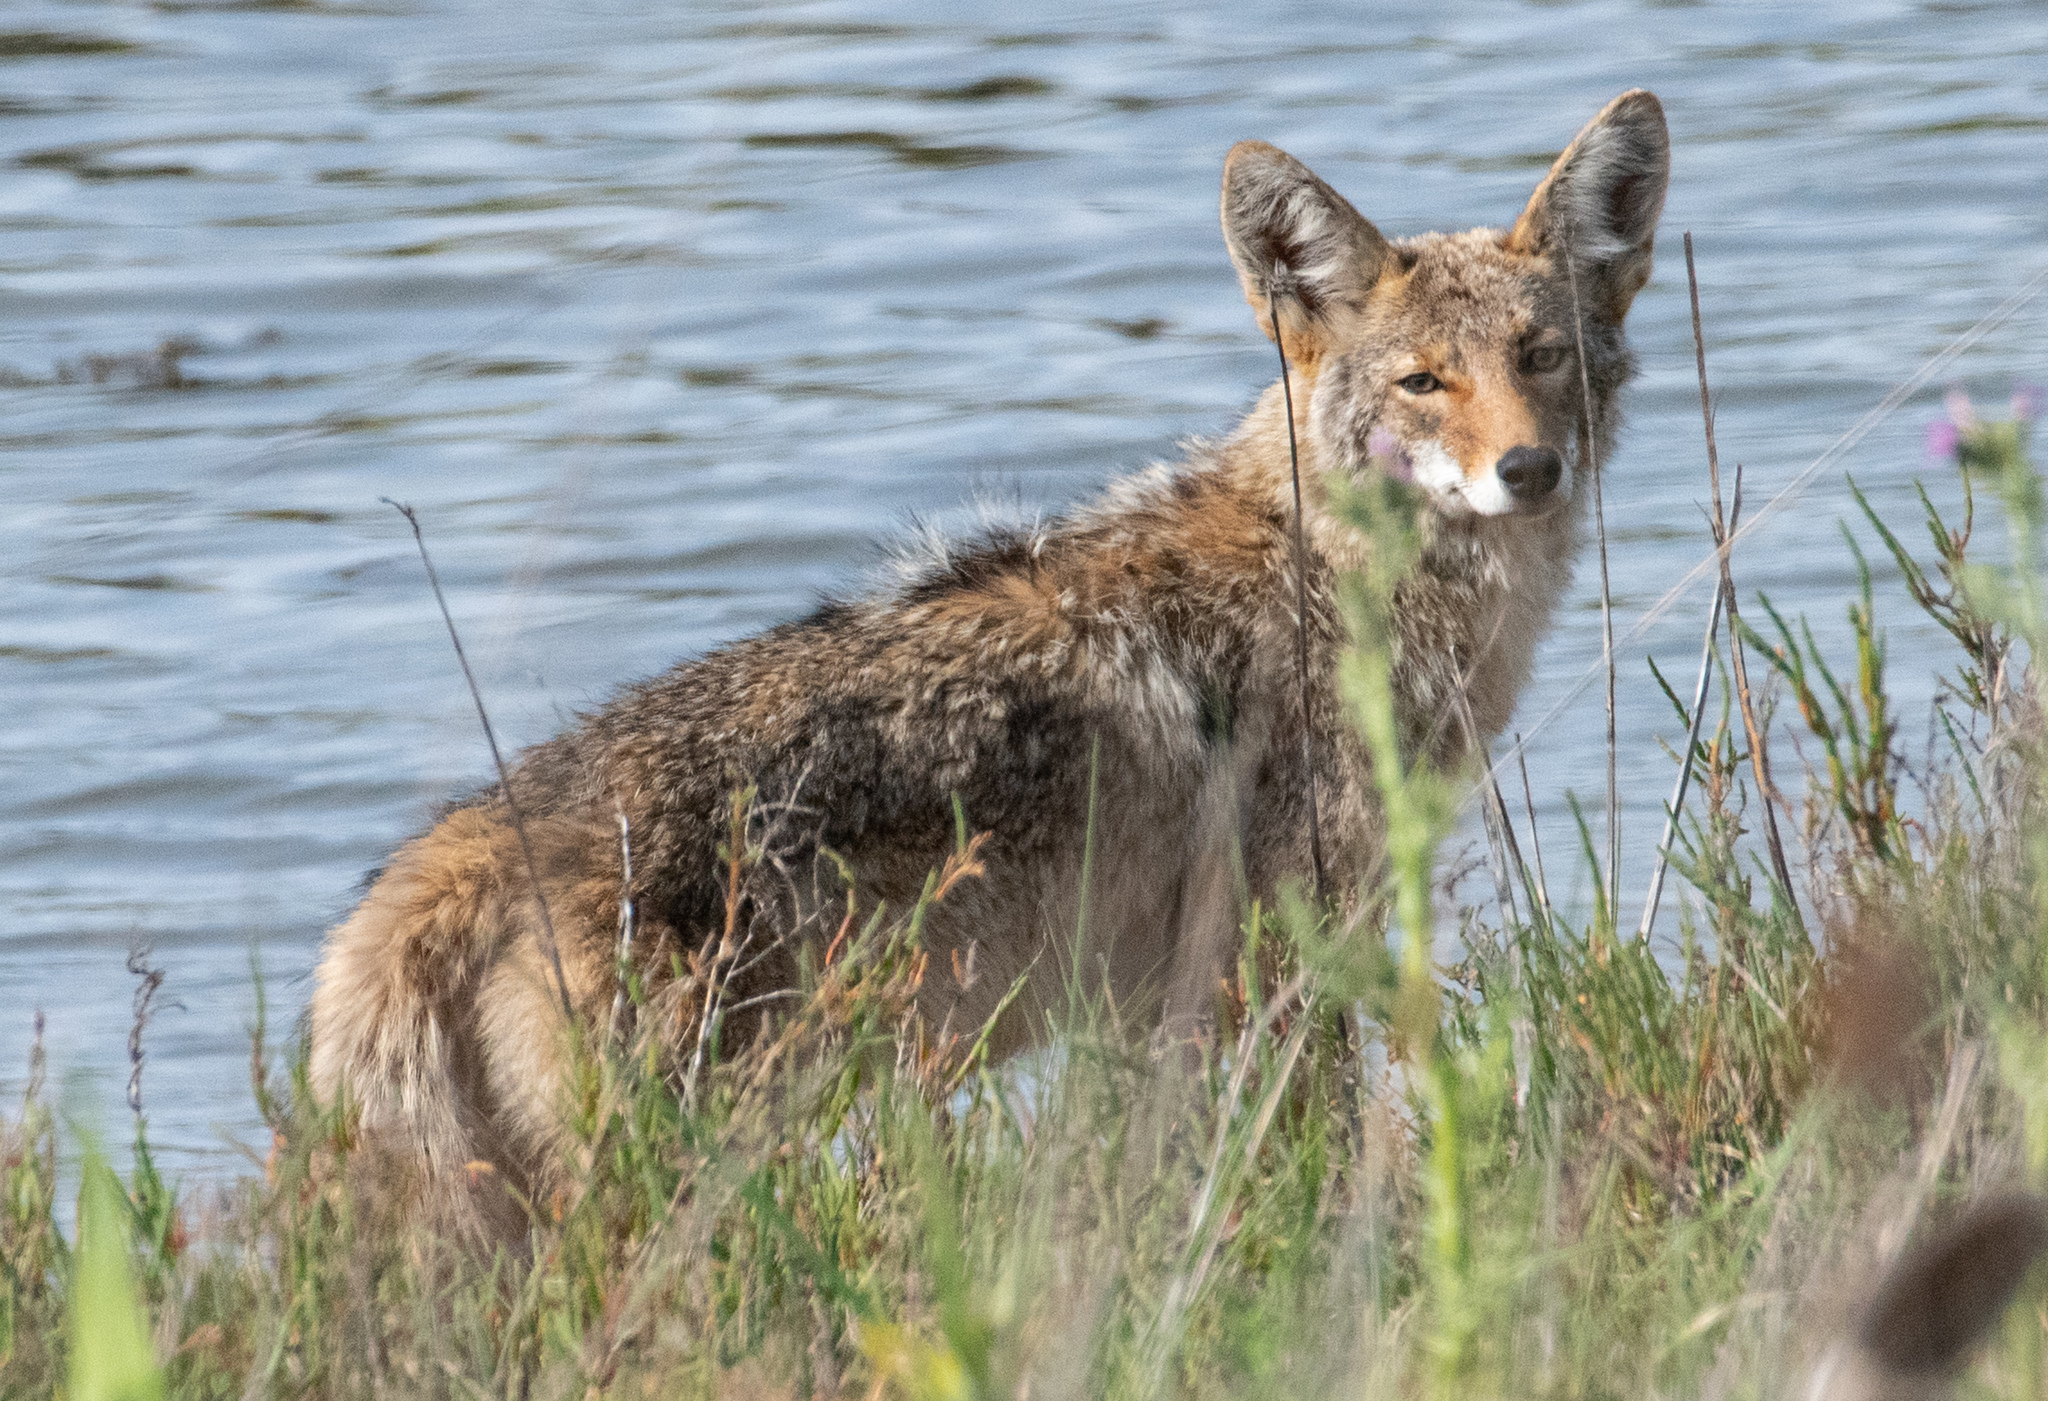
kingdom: Animalia
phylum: Chordata
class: Mammalia
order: Carnivora
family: Canidae
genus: Canis
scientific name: Canis latrans
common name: Coyote
